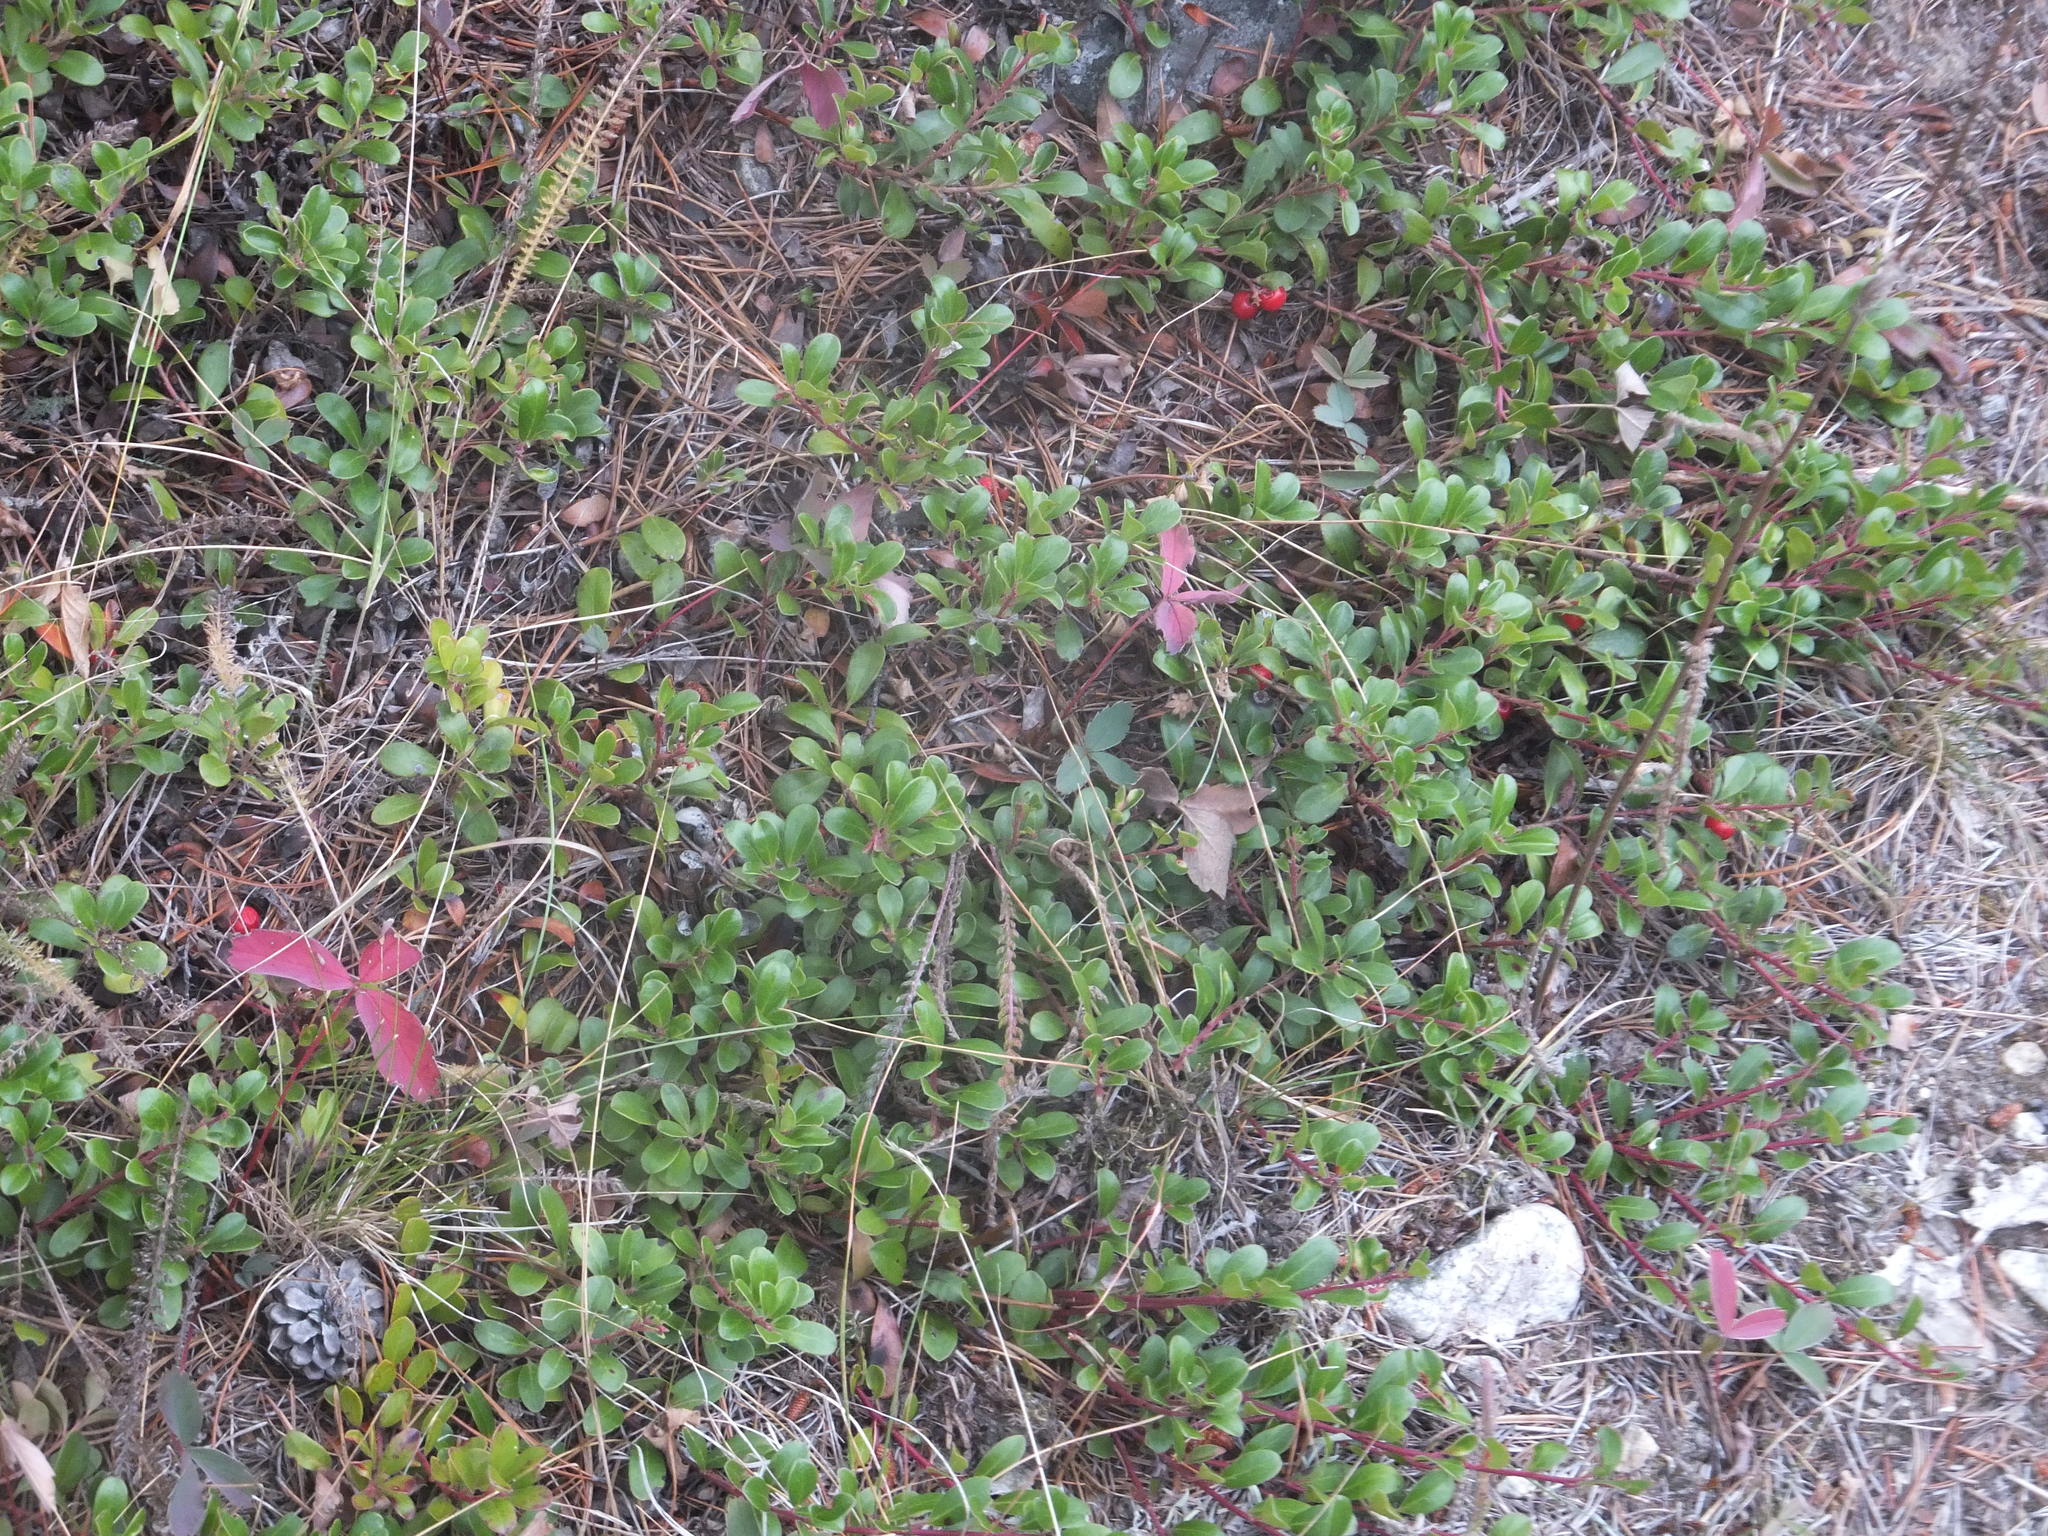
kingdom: Plantae
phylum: Tracheophyta
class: Magnoliopsida
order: Ericales
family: Ericaceae
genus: Arctostaphylos
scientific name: Arctostaphylos uva-ursi
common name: Bearberry
